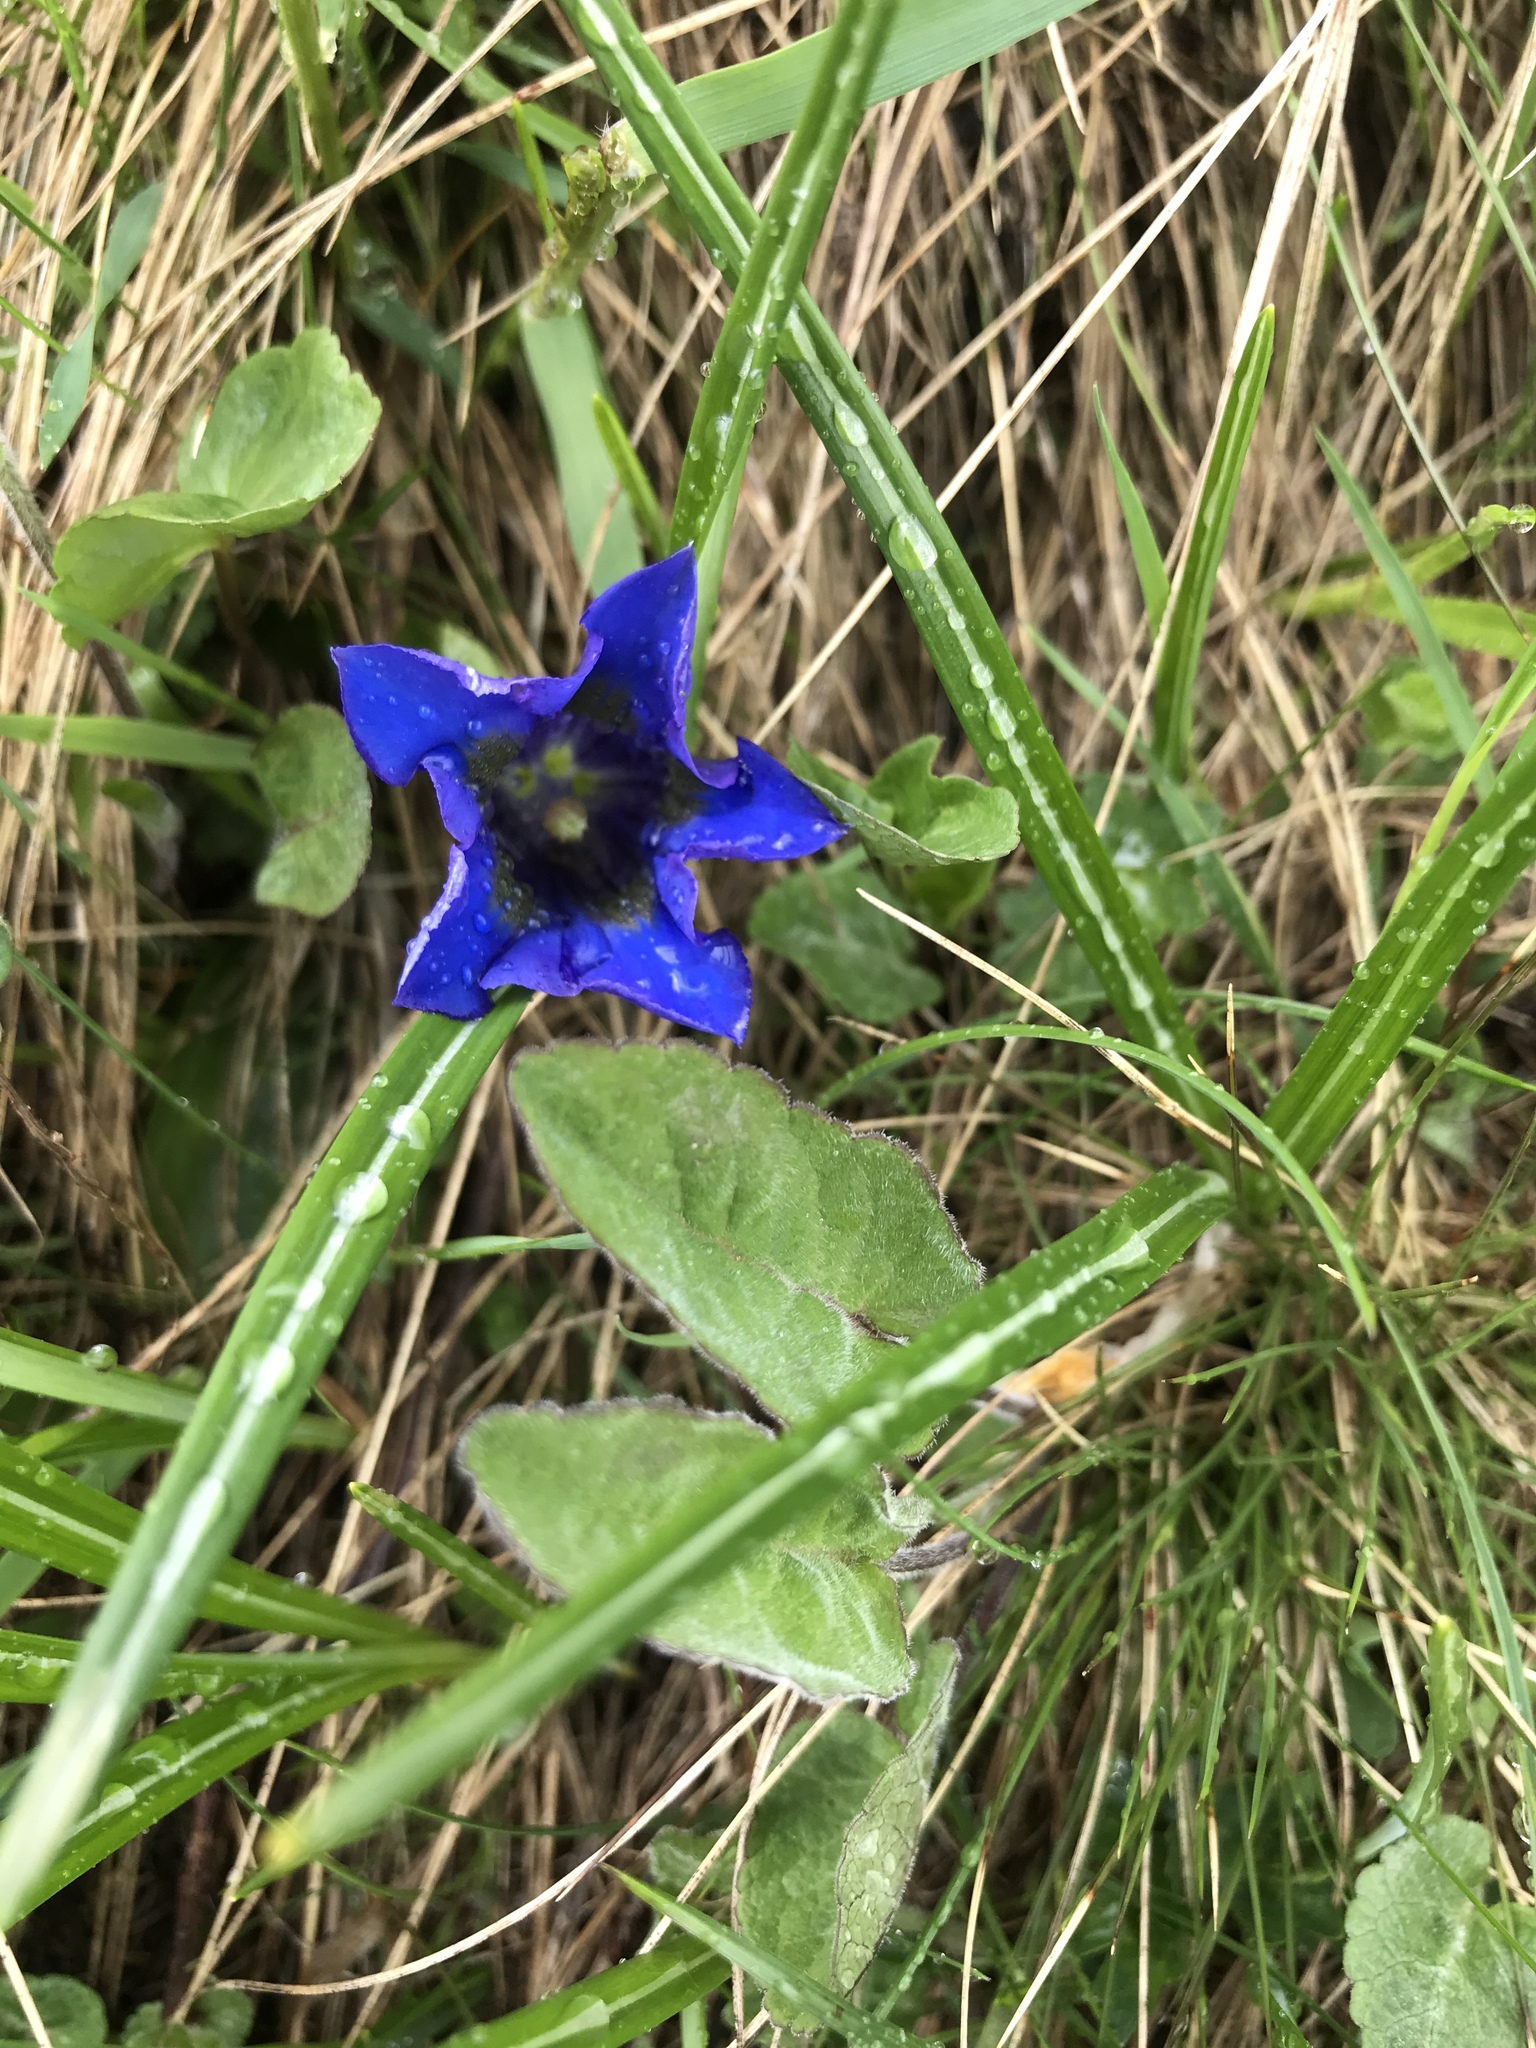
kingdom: Plantae
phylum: Tracheophyta
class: Magnoliopsida
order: Gentianales
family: Gentianaceae
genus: Gentiana
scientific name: Gentiana acaulis
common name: Trumpet gentian
